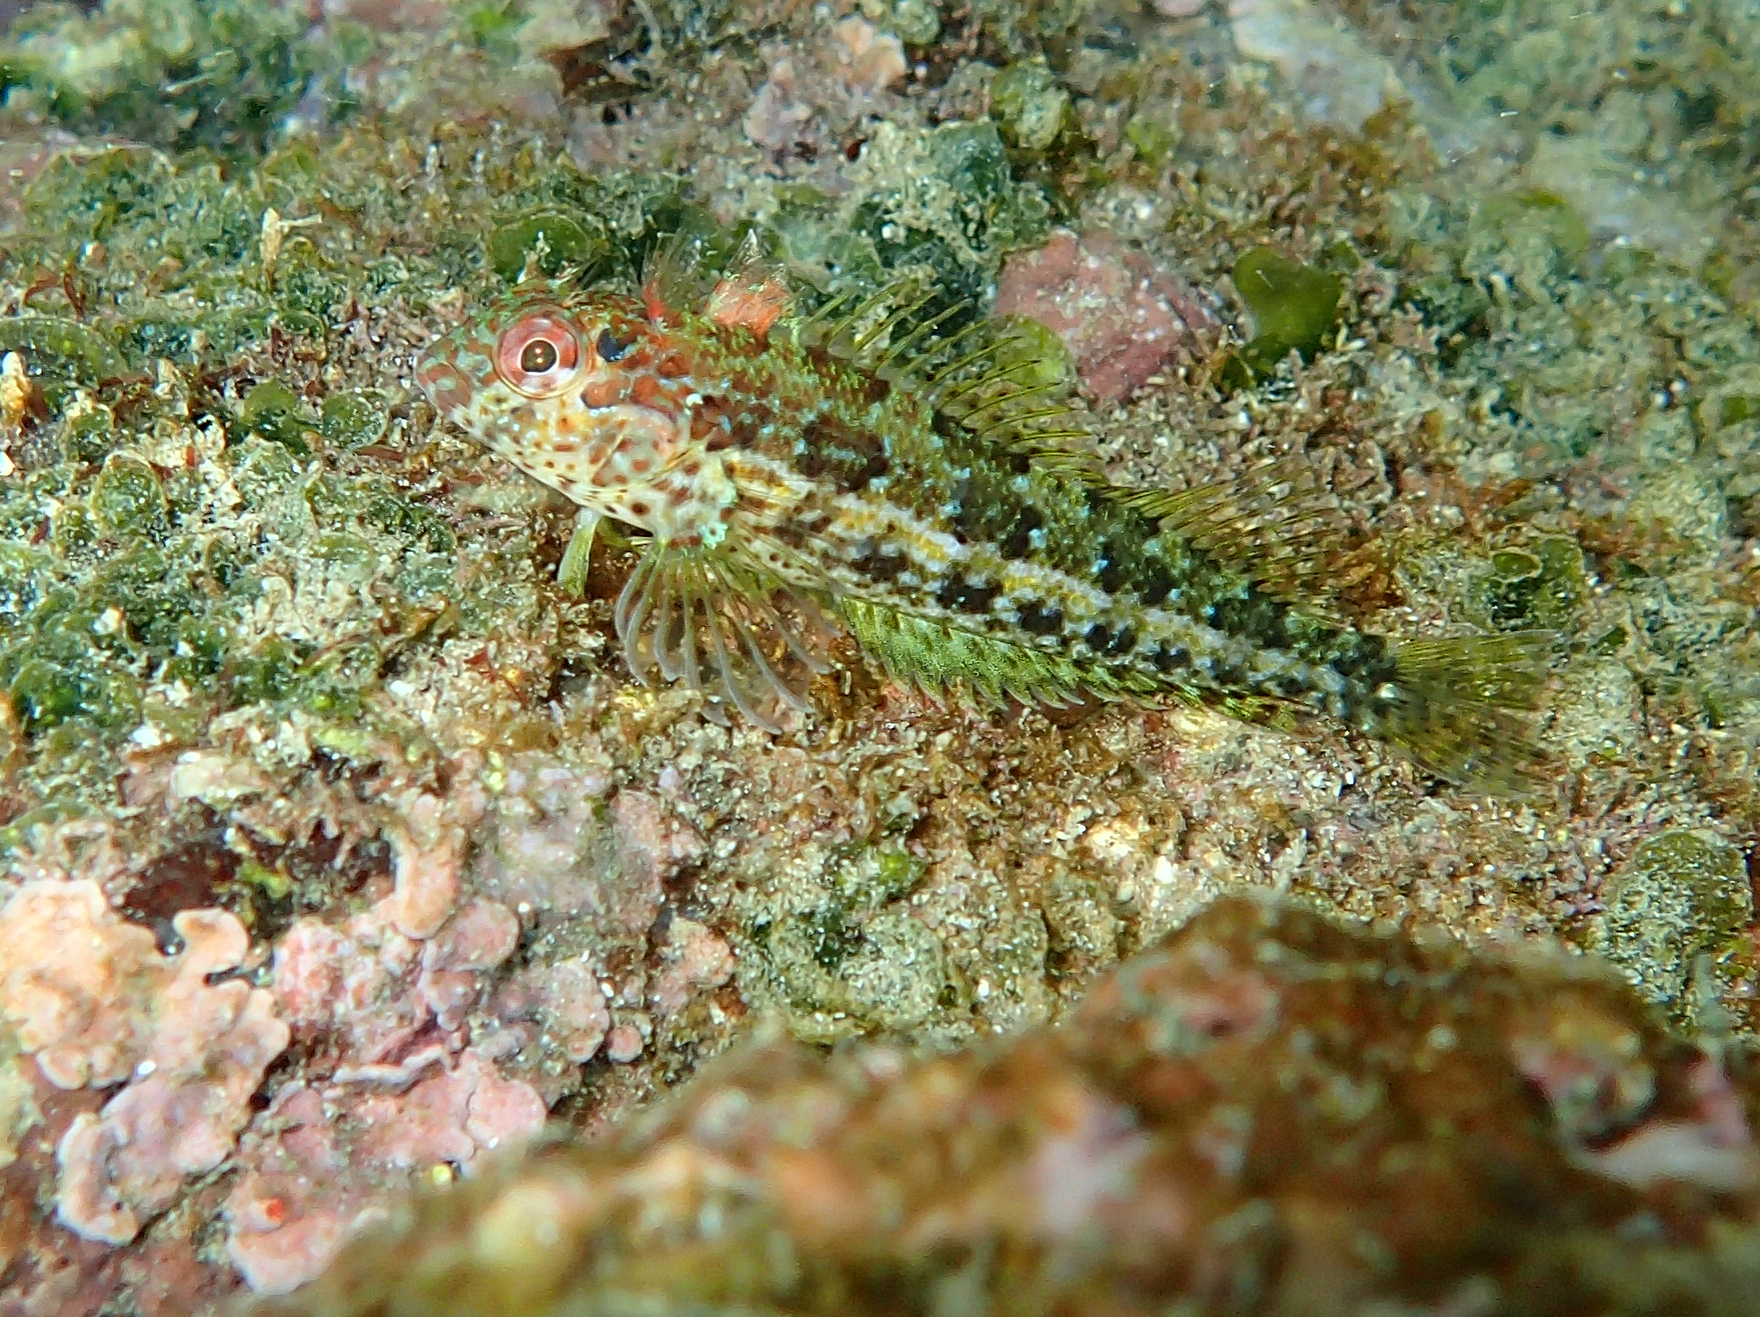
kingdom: Animalia
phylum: Chordata
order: Perciformes
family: Labrisomidae
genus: Malacoctenus
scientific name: Malacoctenus tetranemus
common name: Chameleon clinid
